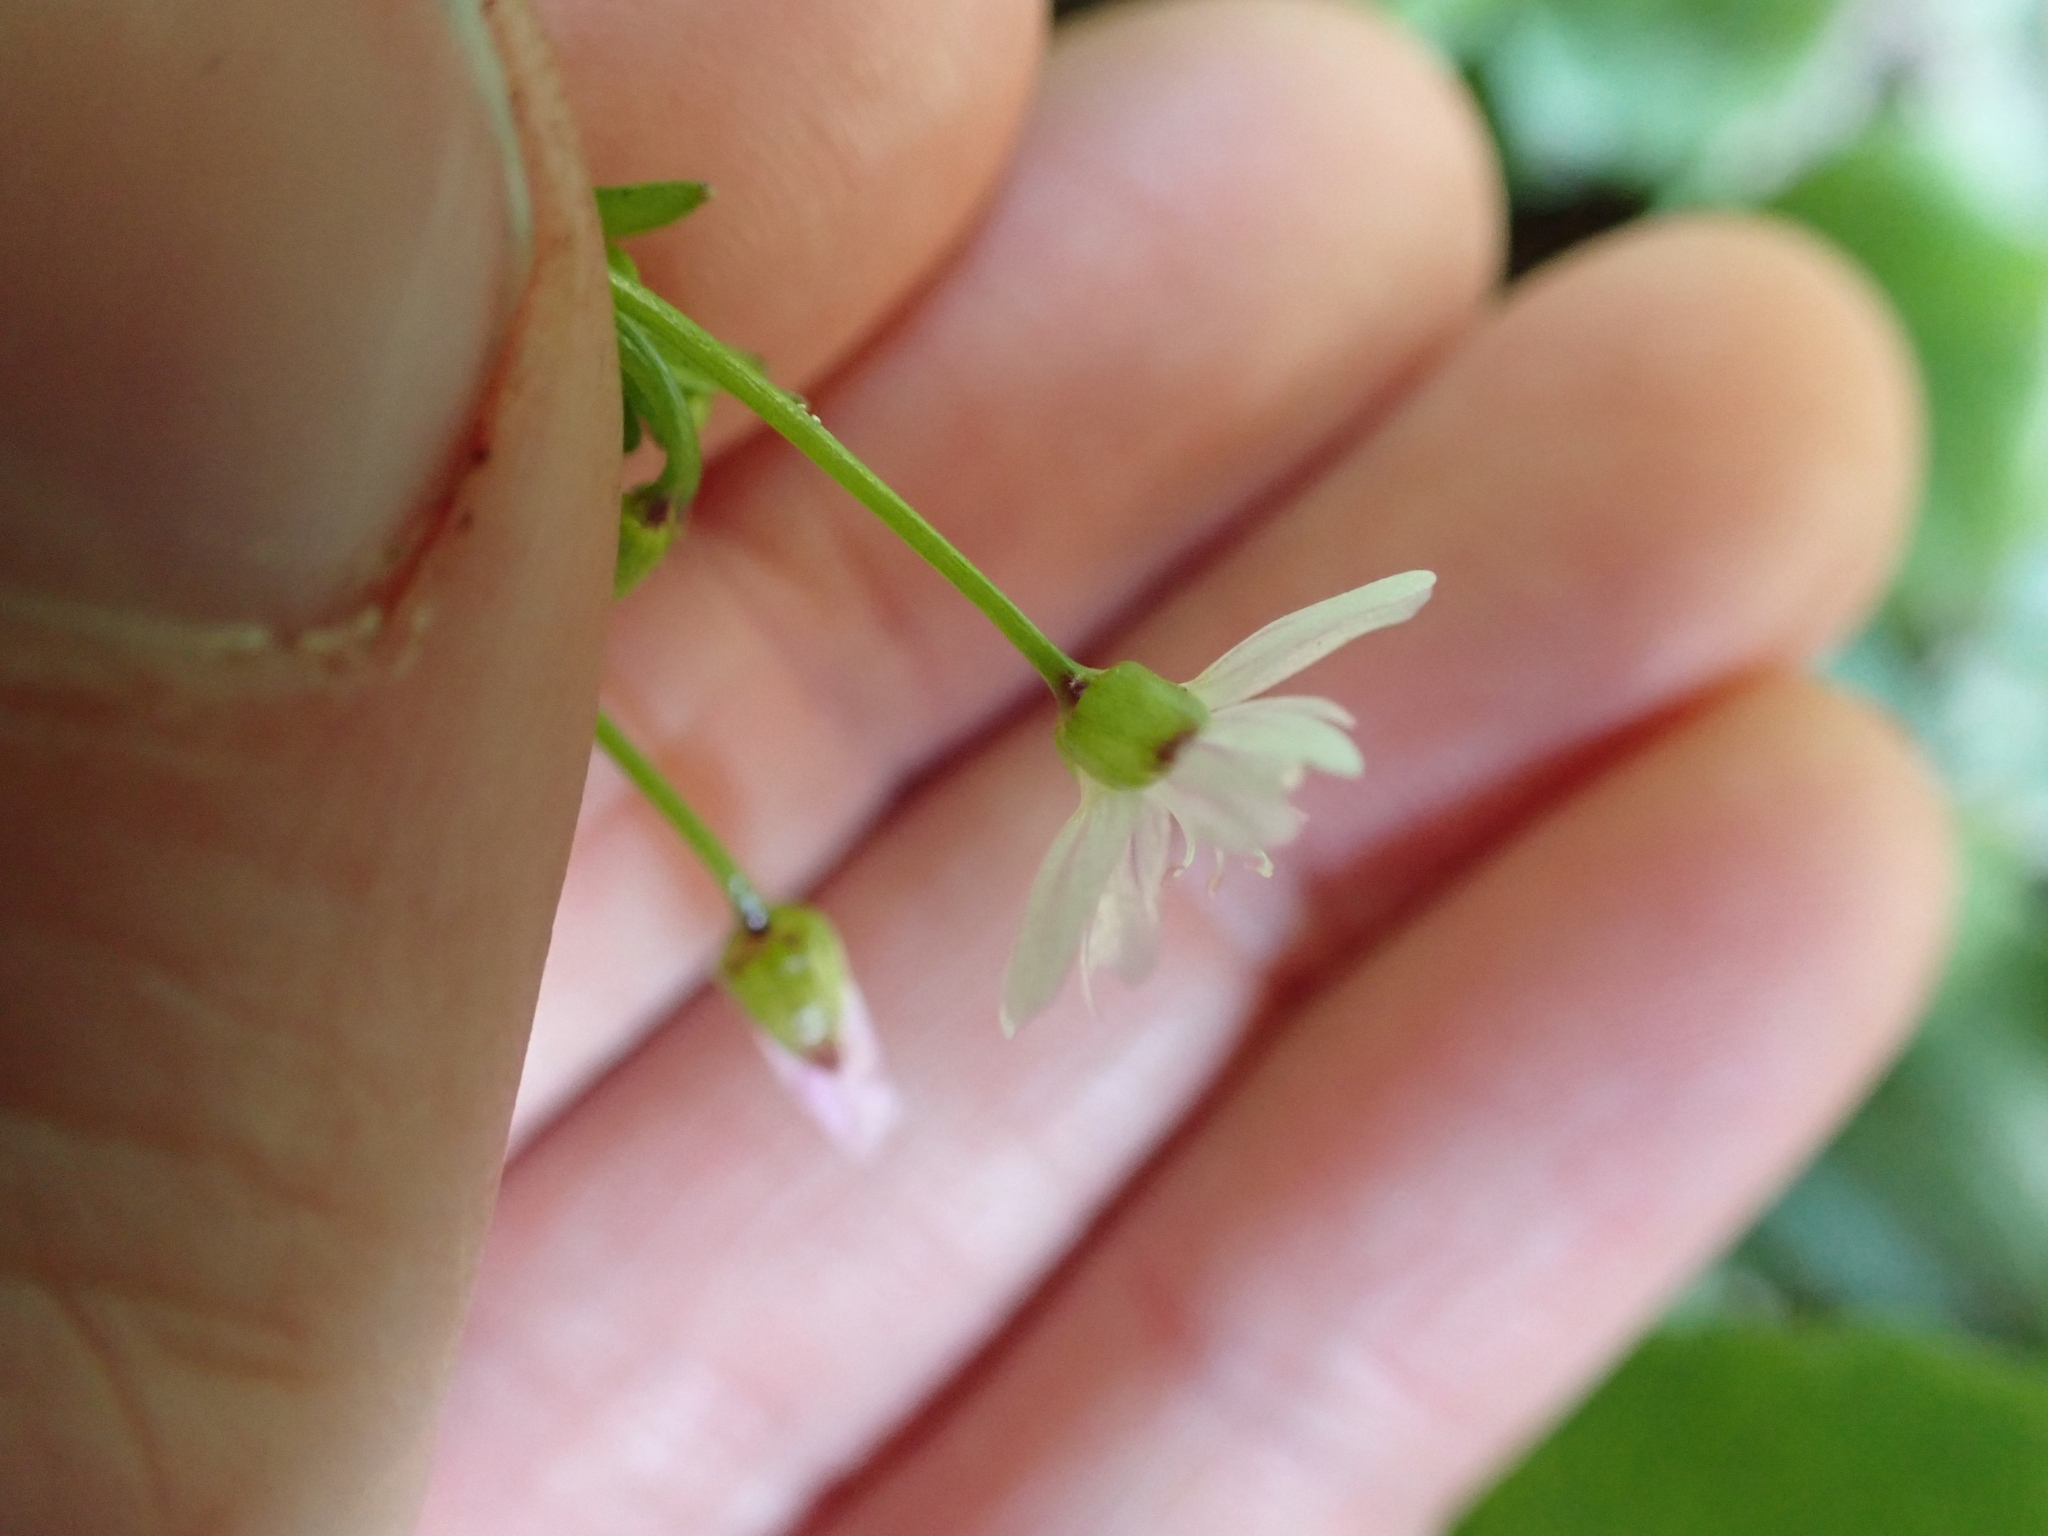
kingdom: Plantae
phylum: Tracheophyta
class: Magnoliopsida
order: Caryophyllales
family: Montiaceae
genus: Claytonia
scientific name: Claytonia sibirica
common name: Pink purslane
